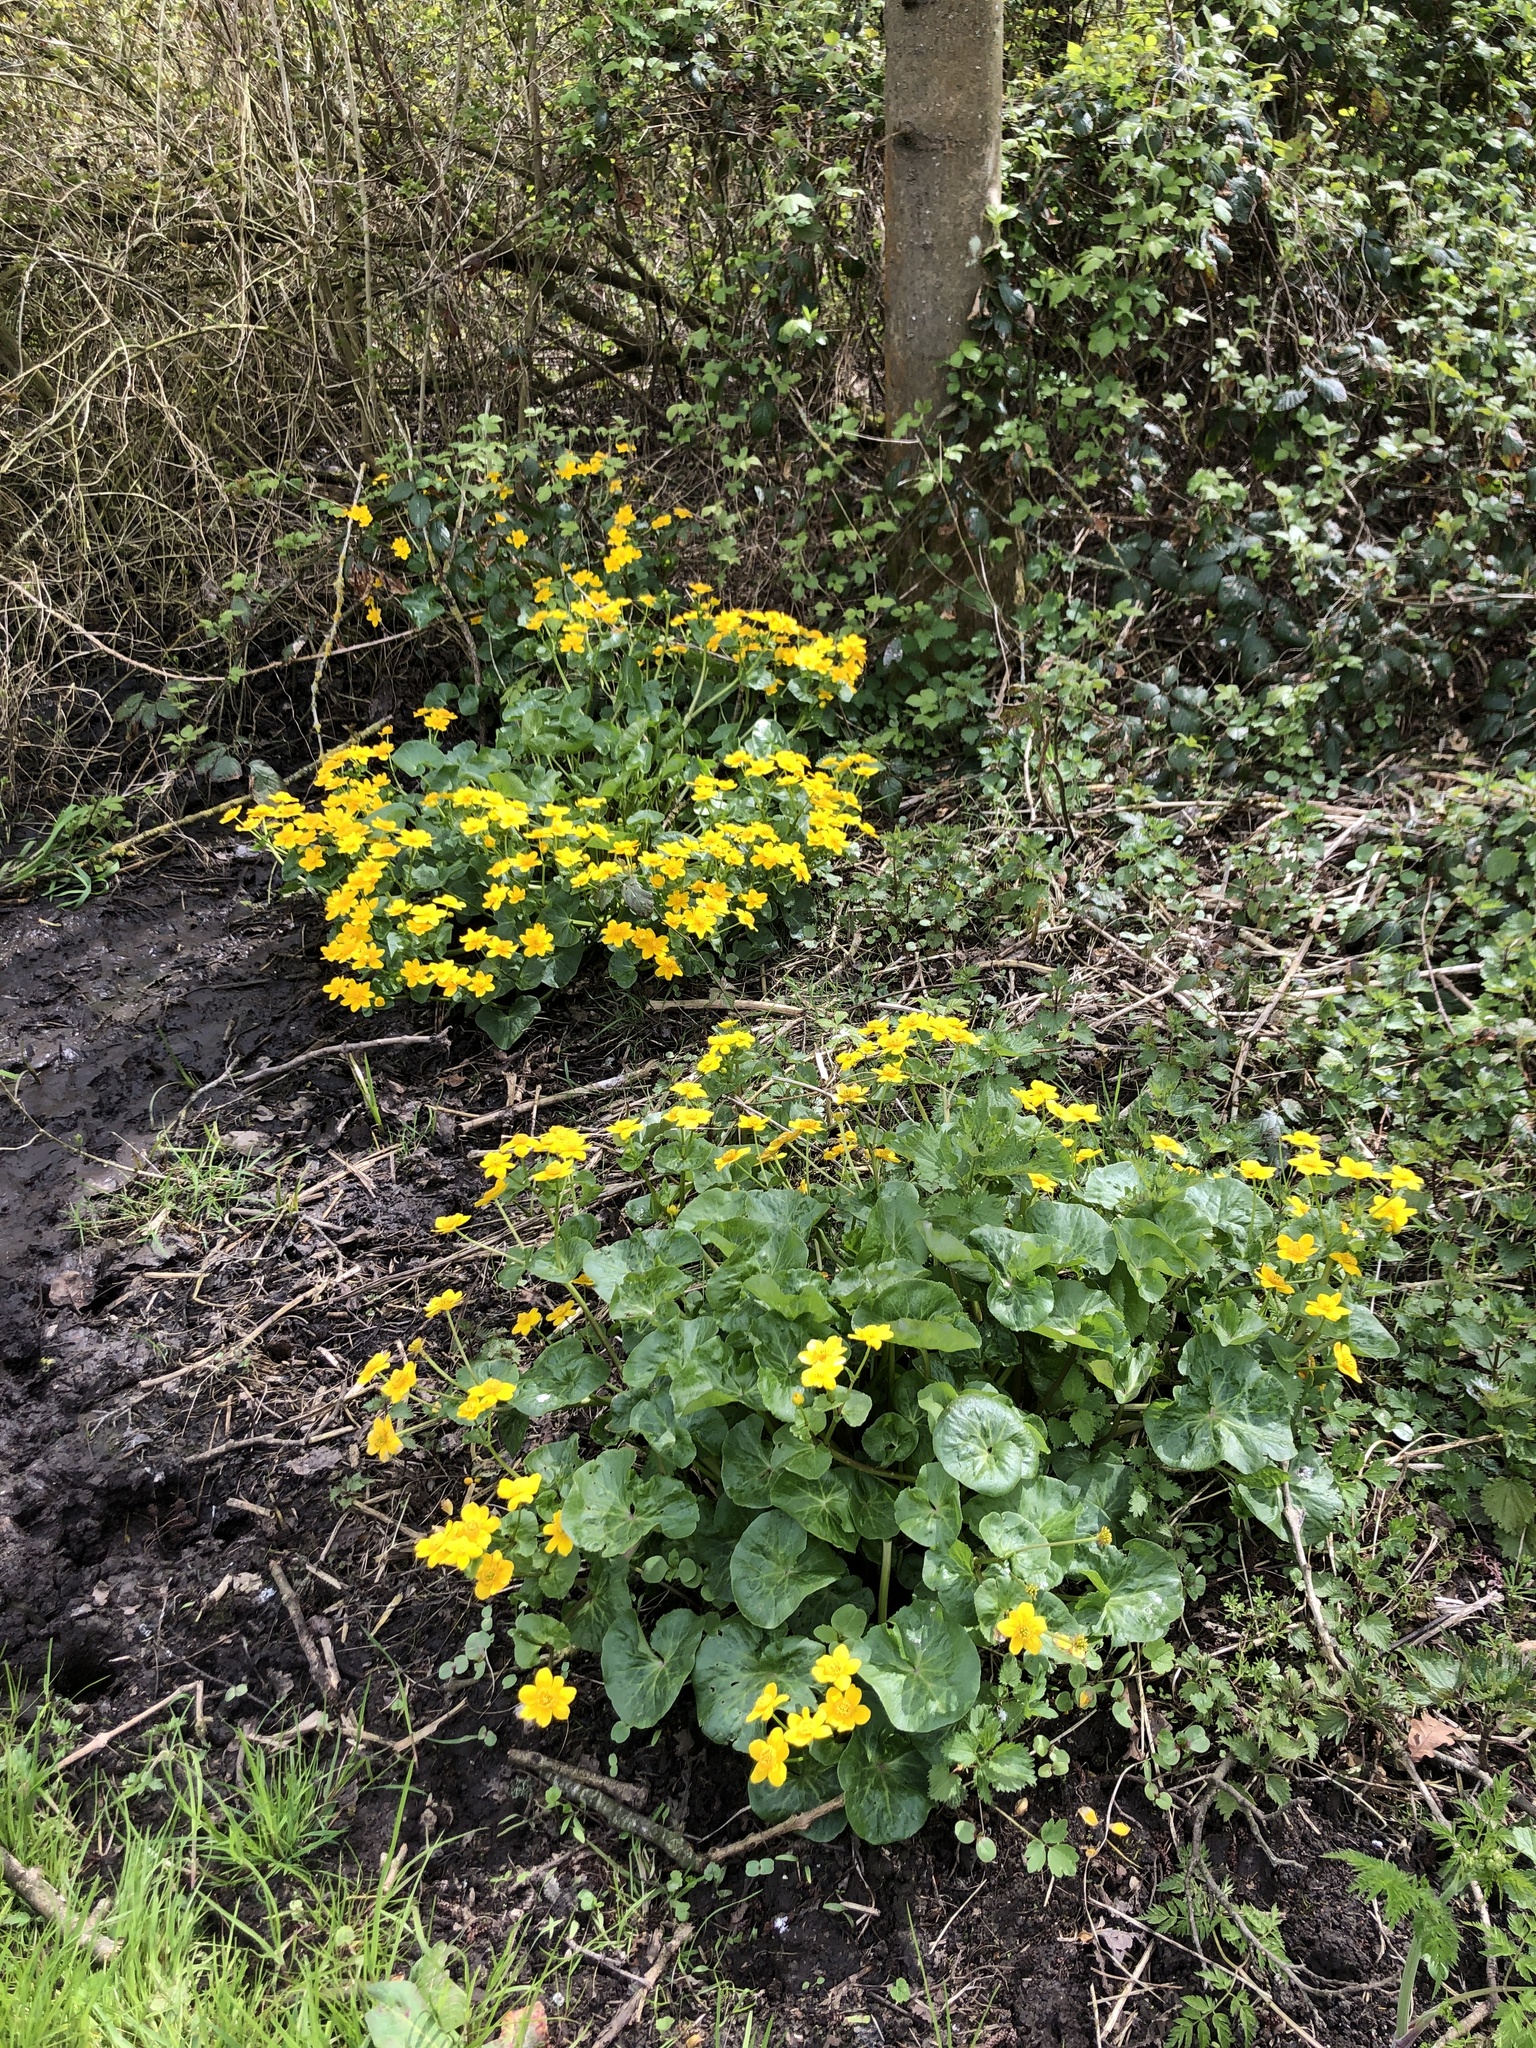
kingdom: Plantae
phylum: Tracheophyta
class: Magnoliopsida
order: Ranunculales
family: Ranunculaceae
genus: Caltha
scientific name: Caltha palustris
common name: Marsh marigold
